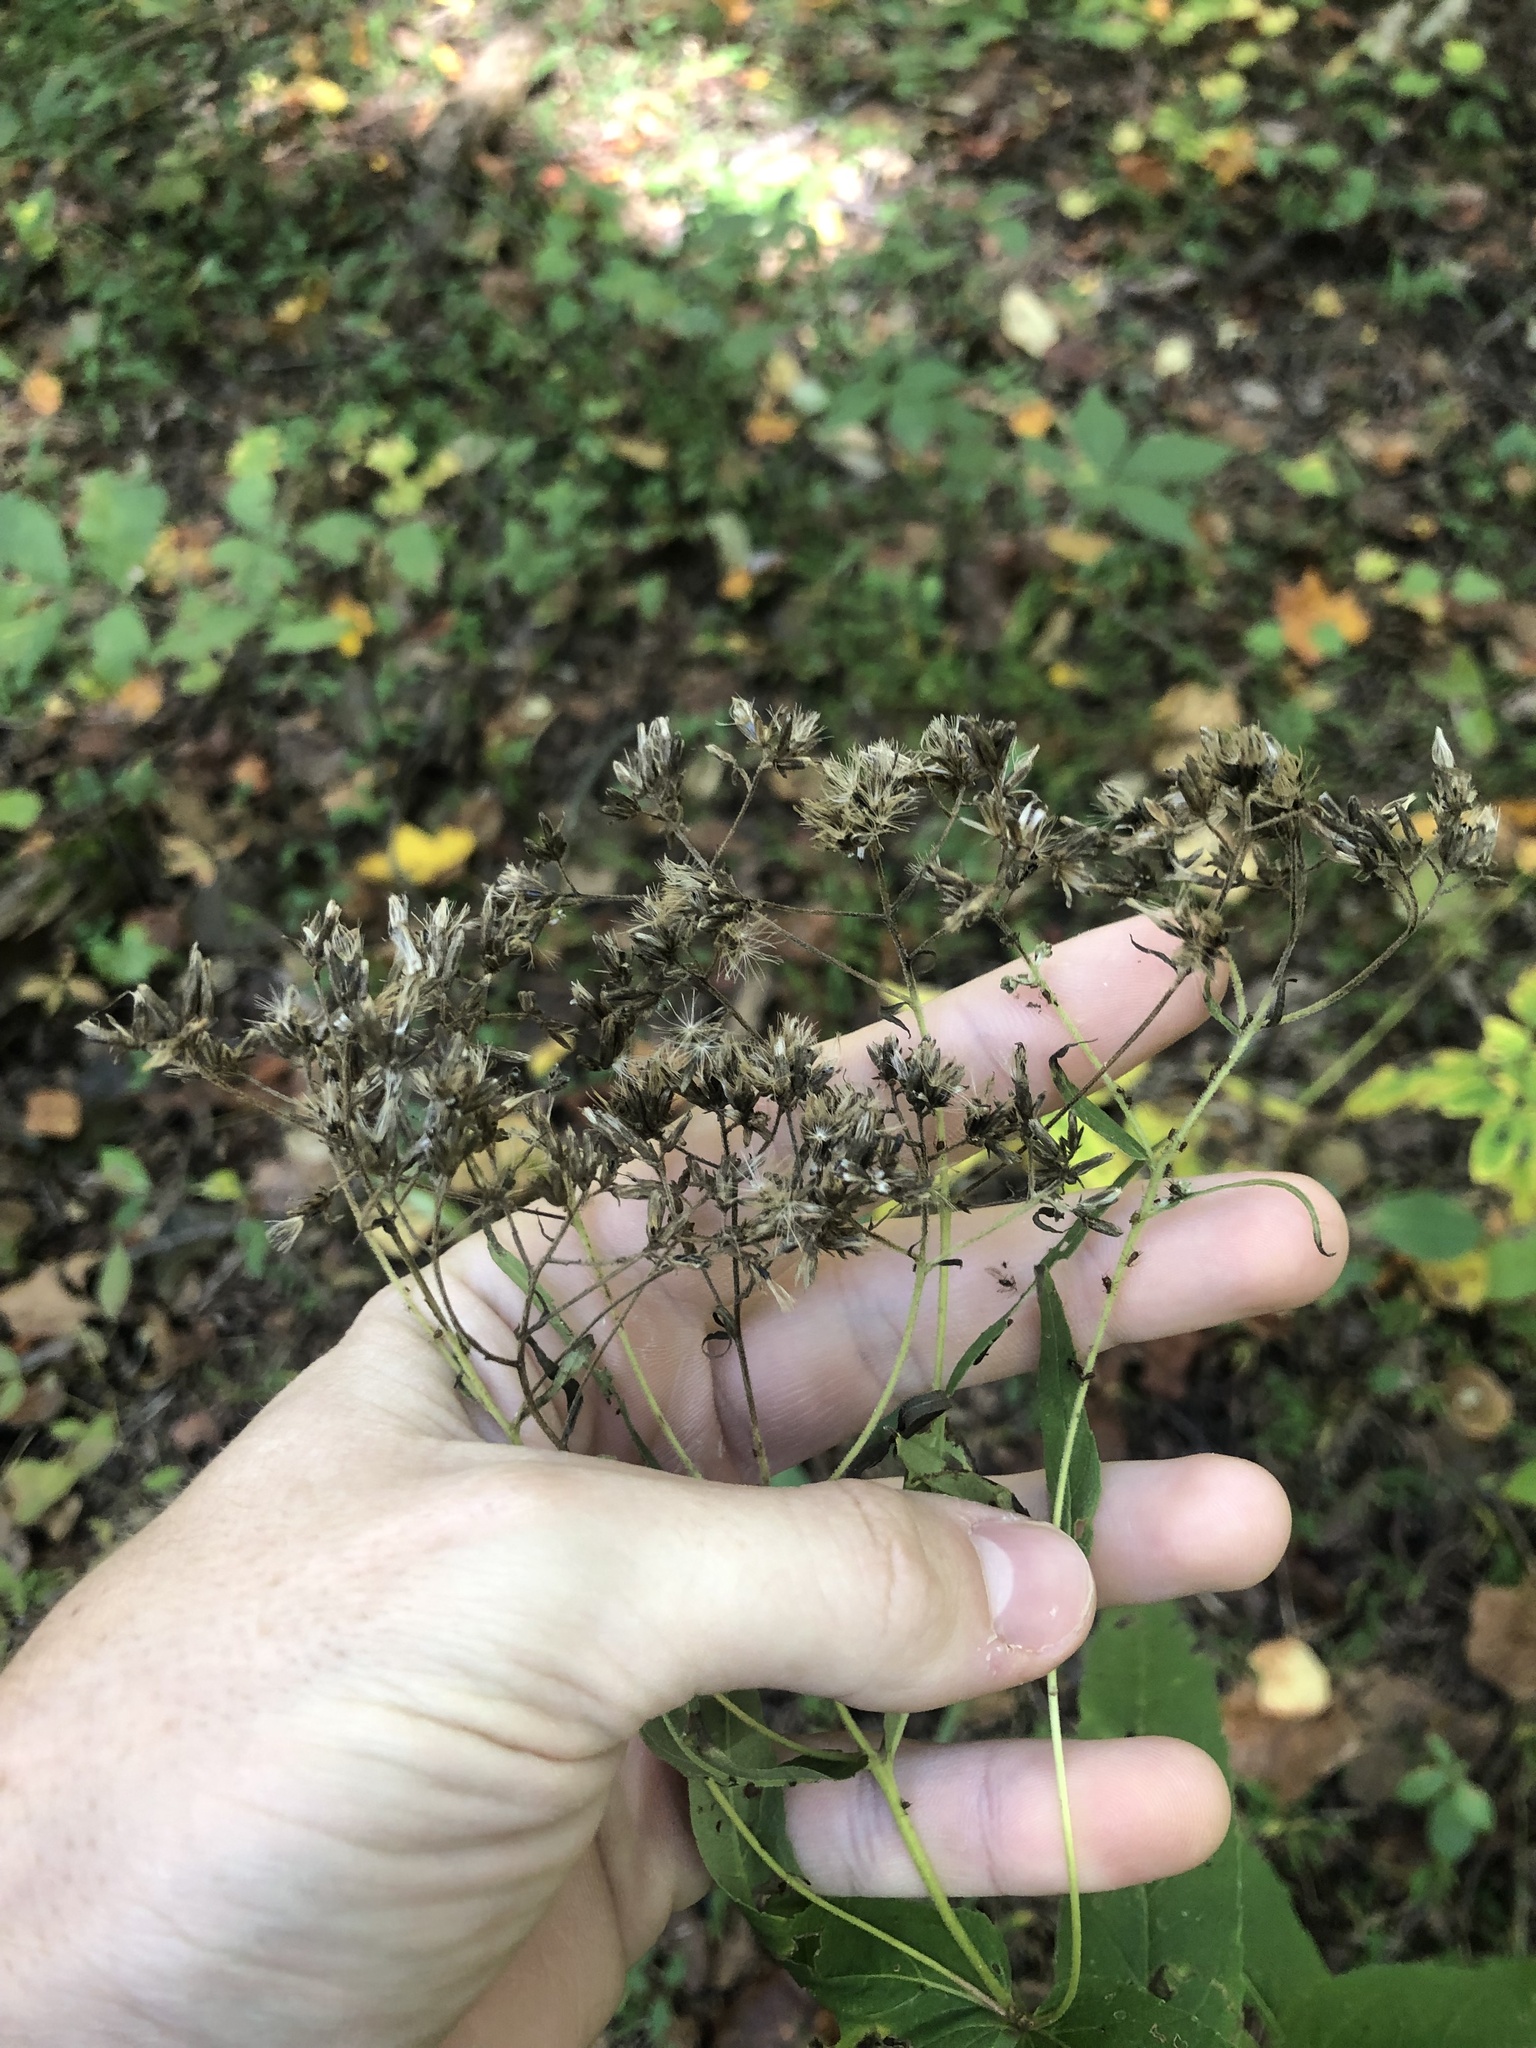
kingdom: Plantae
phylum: Tracheophyta
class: Magnoliopsida
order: Asterales
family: Asteraceae
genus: Eupatorium
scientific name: Eupatorium sessilifolium
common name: Upland boneset
